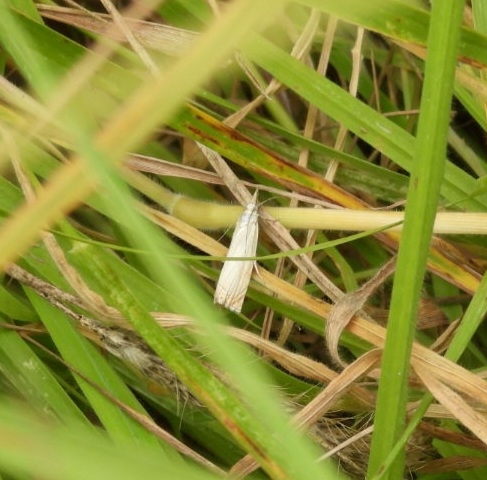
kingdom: Animalia
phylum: Arthropoda
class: Insecta
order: Lepidoptera
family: Crambidae
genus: Chrysoteuchia
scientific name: Chrysoteuchia culmella
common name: Garden grass-veneer
